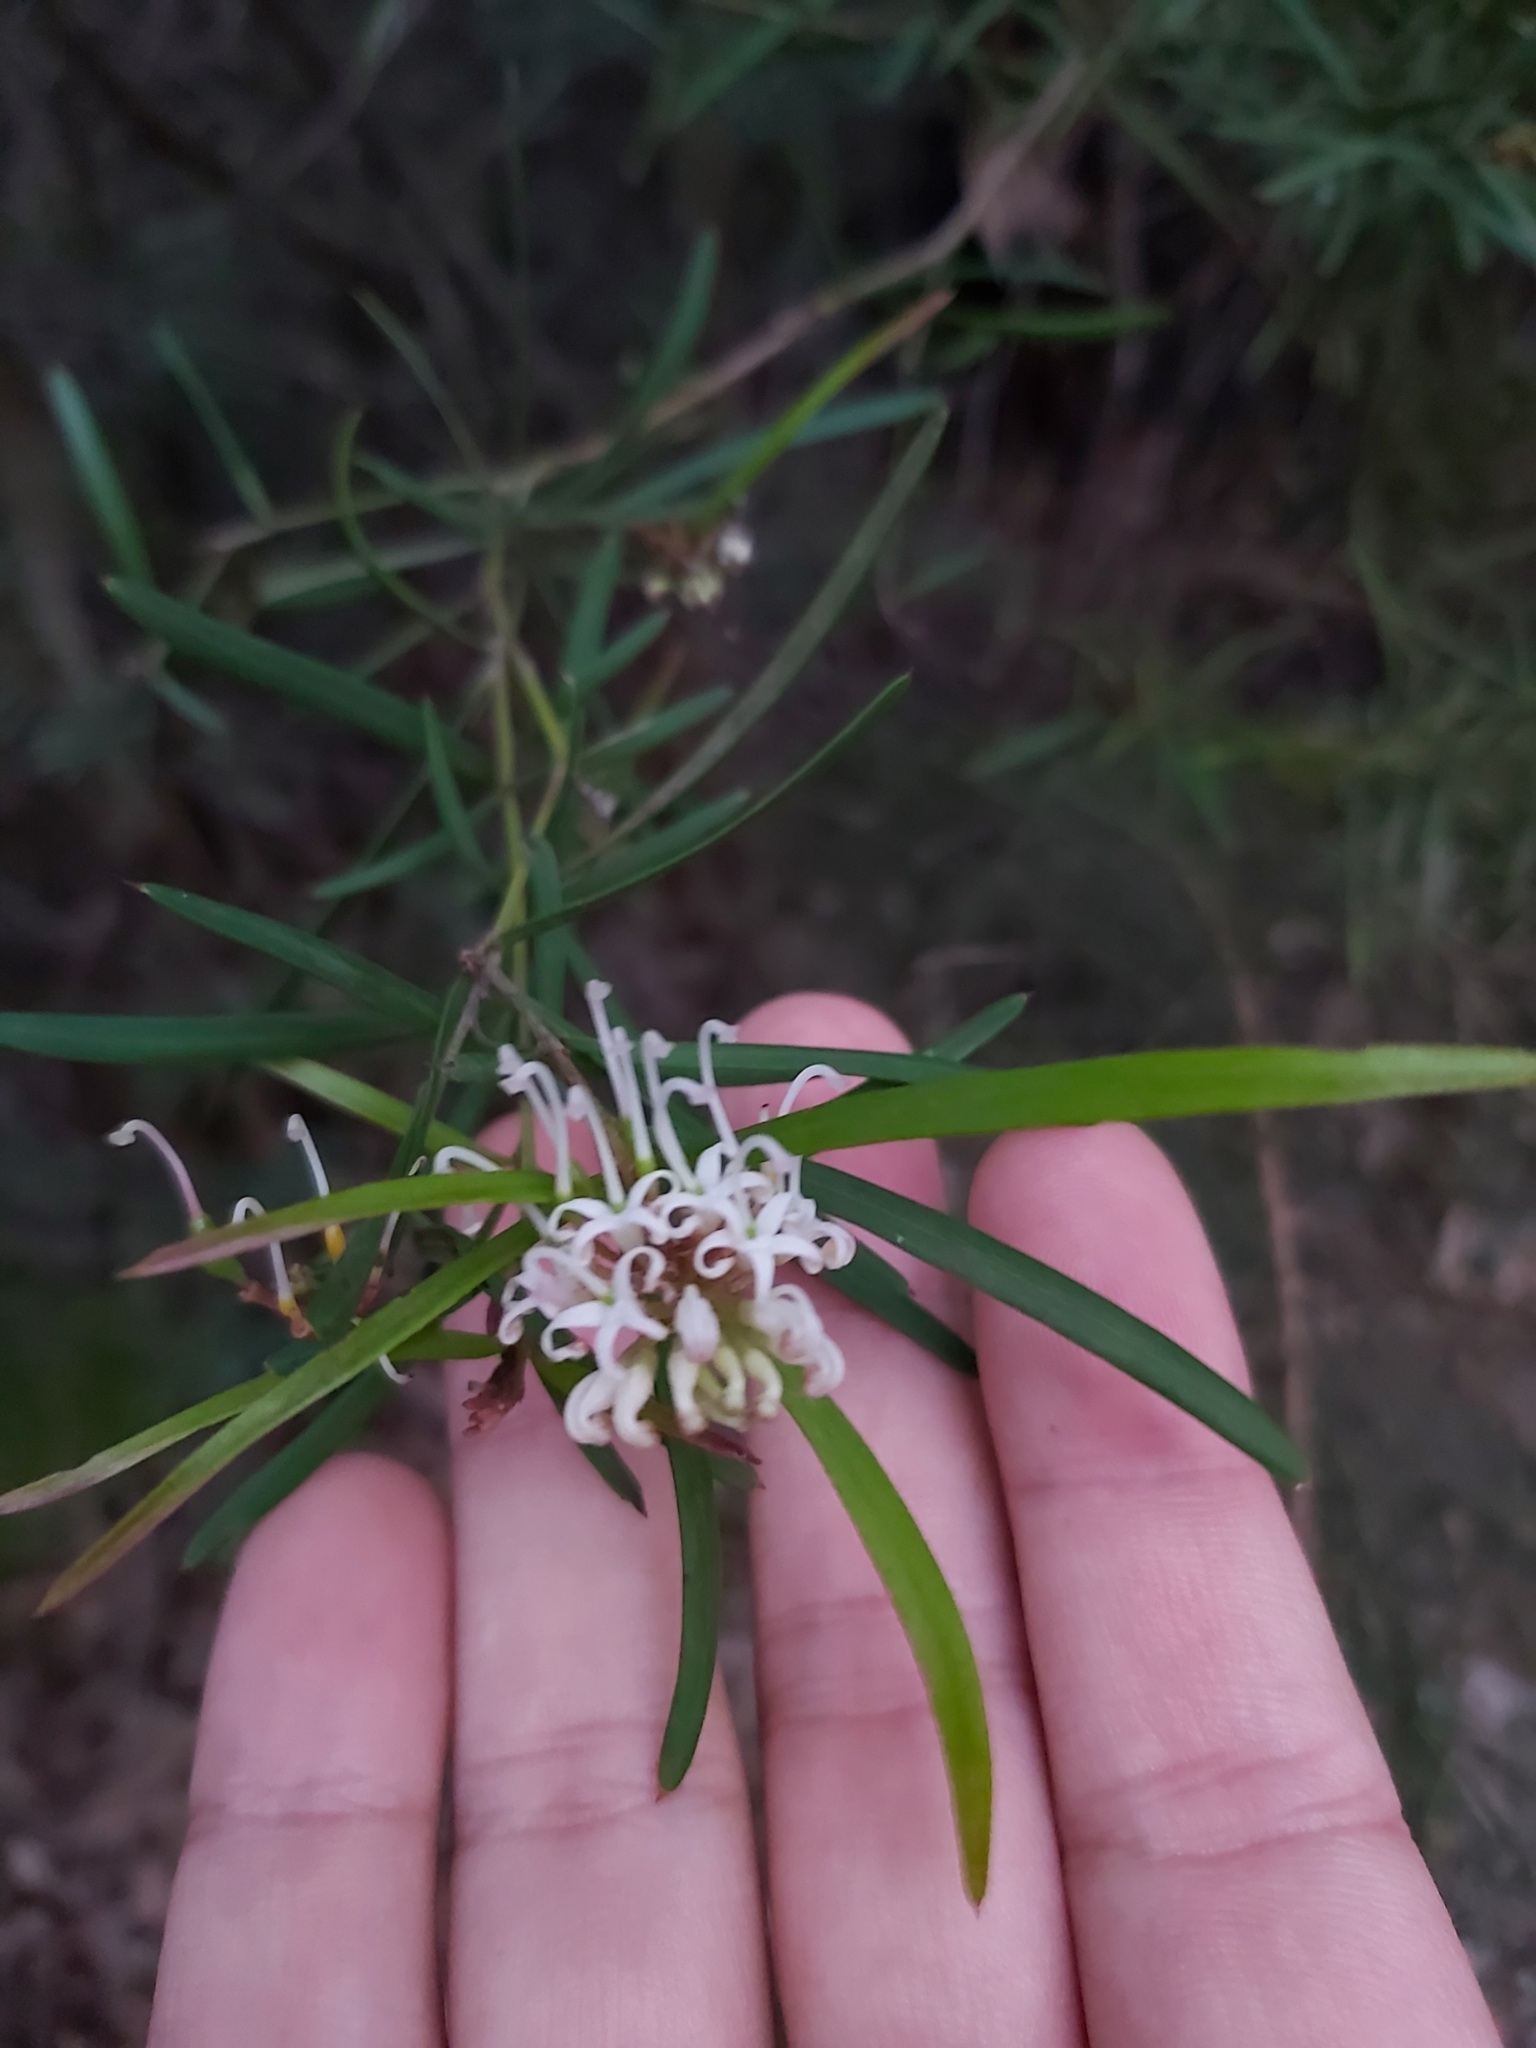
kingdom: Plantae
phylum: Tracheophyta
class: Magnoliopsida
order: Proteales
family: Proteaceae
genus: Grevillea
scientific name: Grevillea linearifolia
